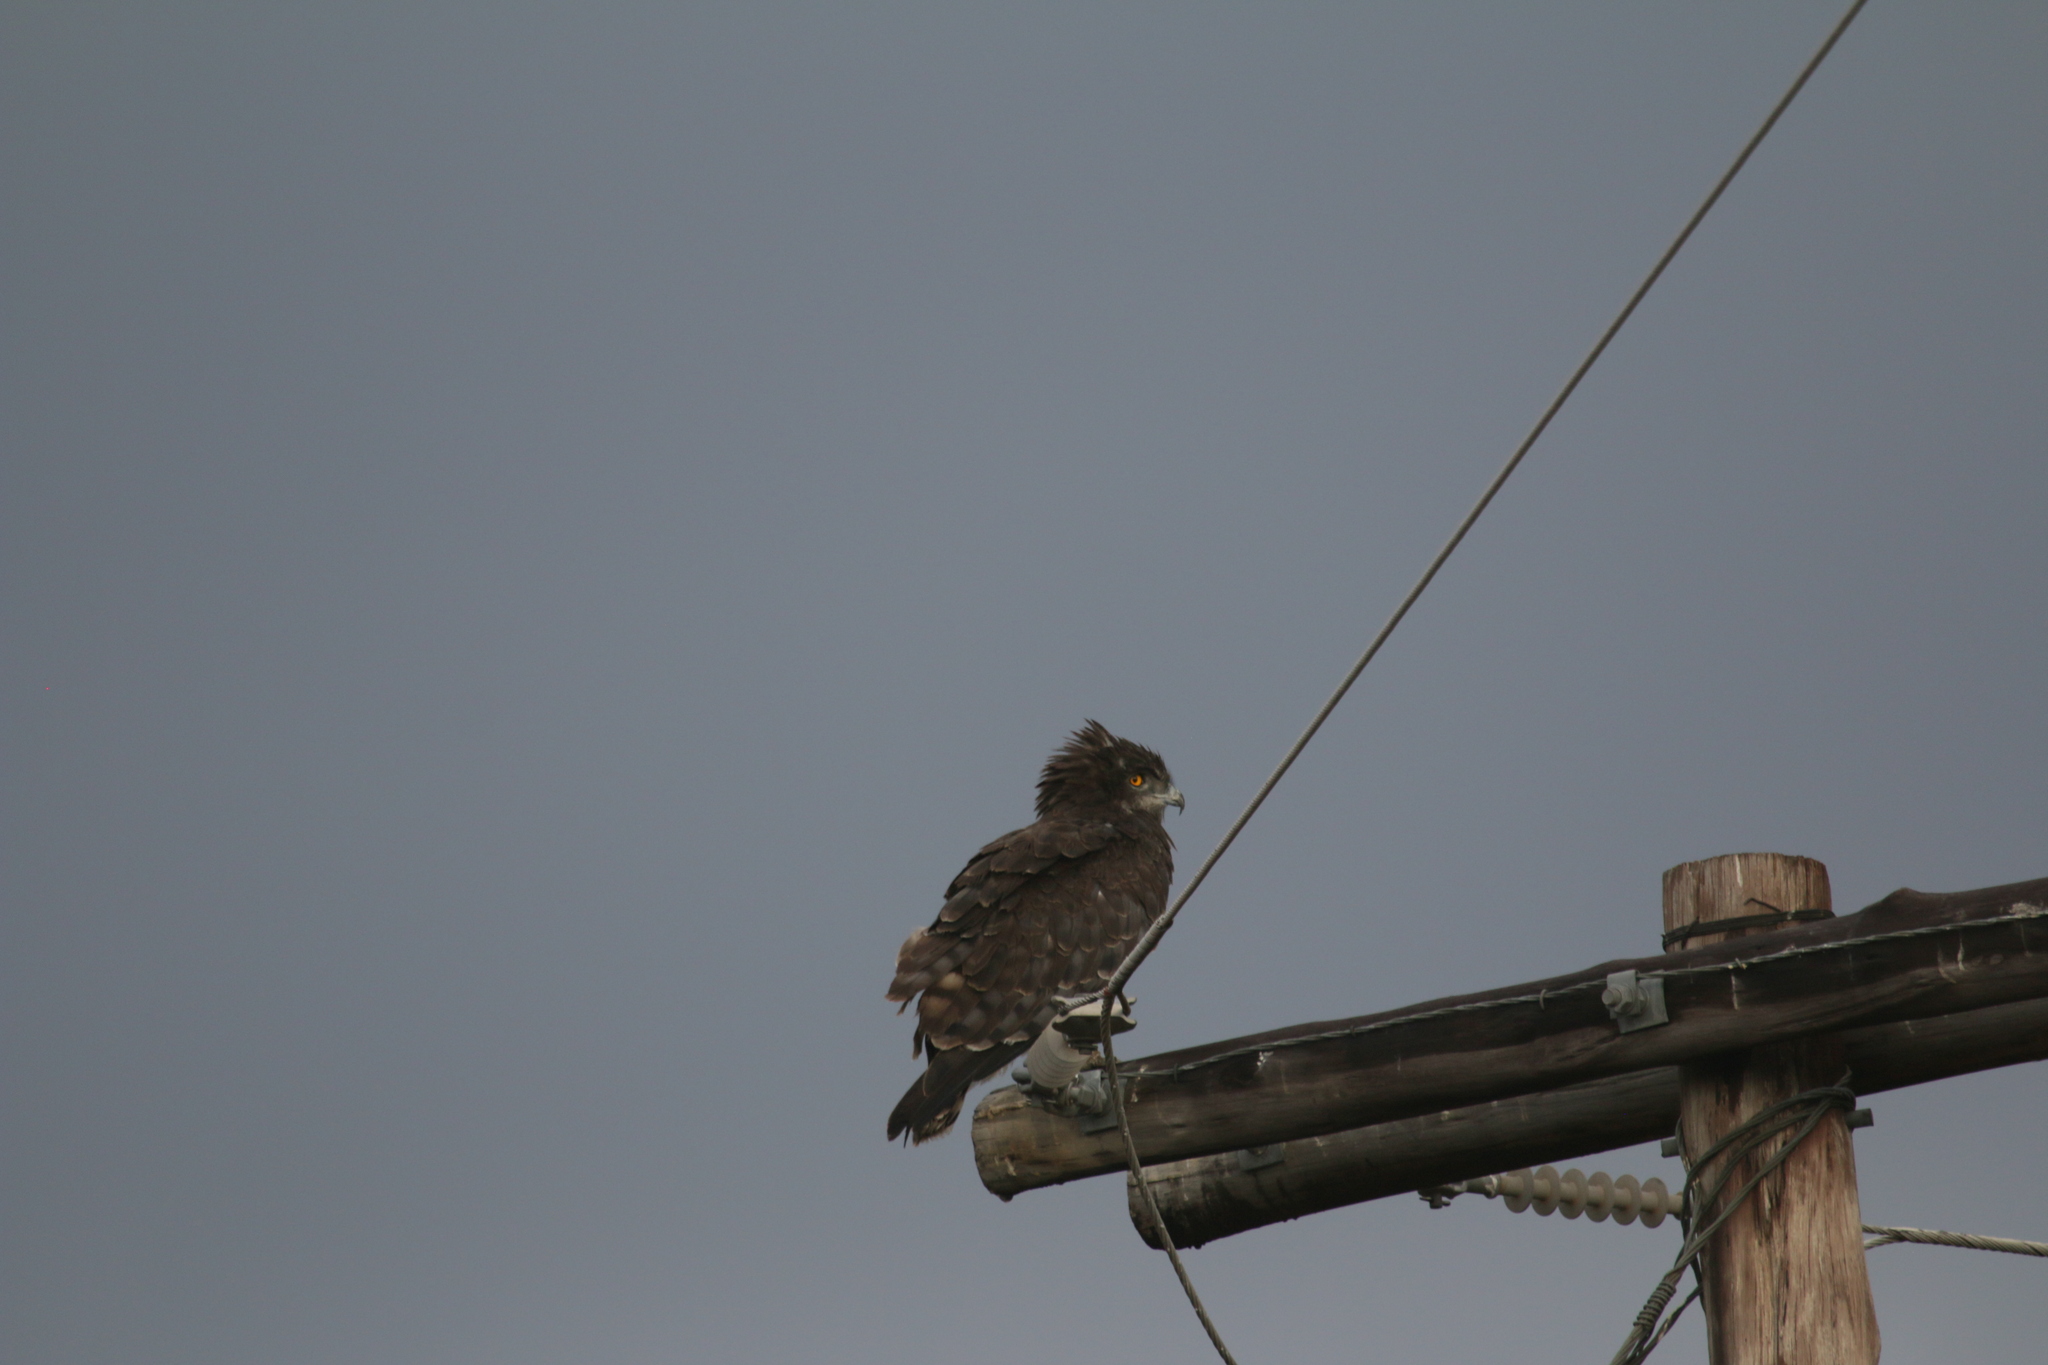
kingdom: Animalia
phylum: Chordata
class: Aves
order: Accipitriformes
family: Accipitridae
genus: Circaetus
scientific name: Circaetus pectoralis
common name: Black-chested snake eagle
